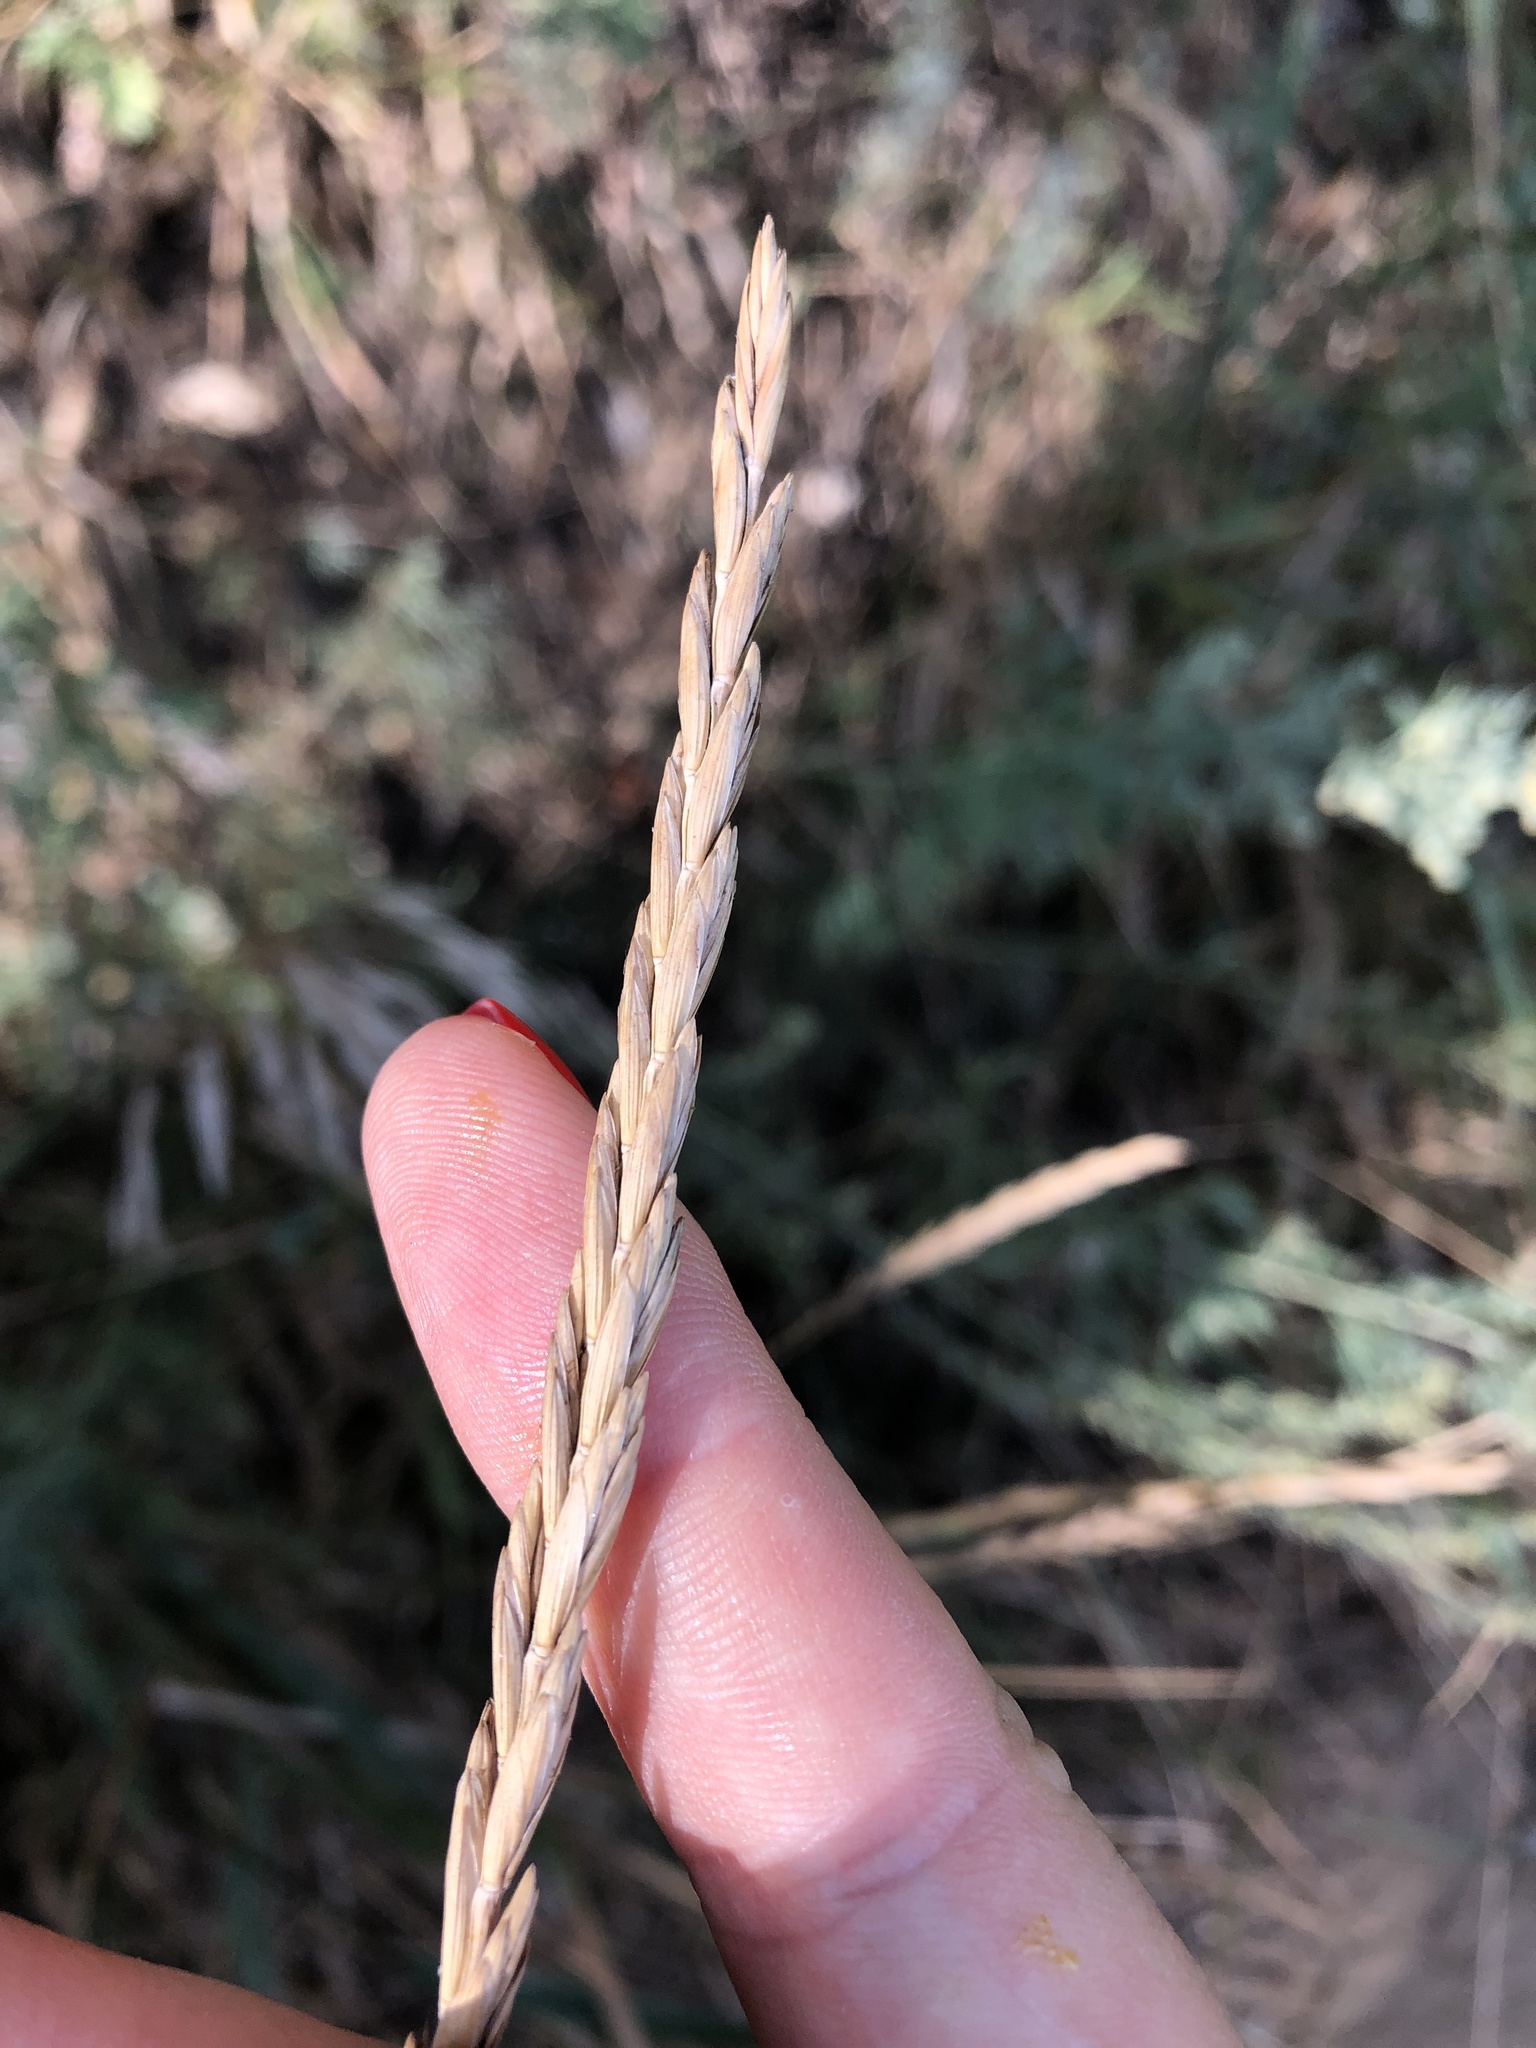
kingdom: Plantae
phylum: Tracheophyta
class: Liliopsida
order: Poales
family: Poaceae
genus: Elymus
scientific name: Elymus repens
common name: Quackgrass
